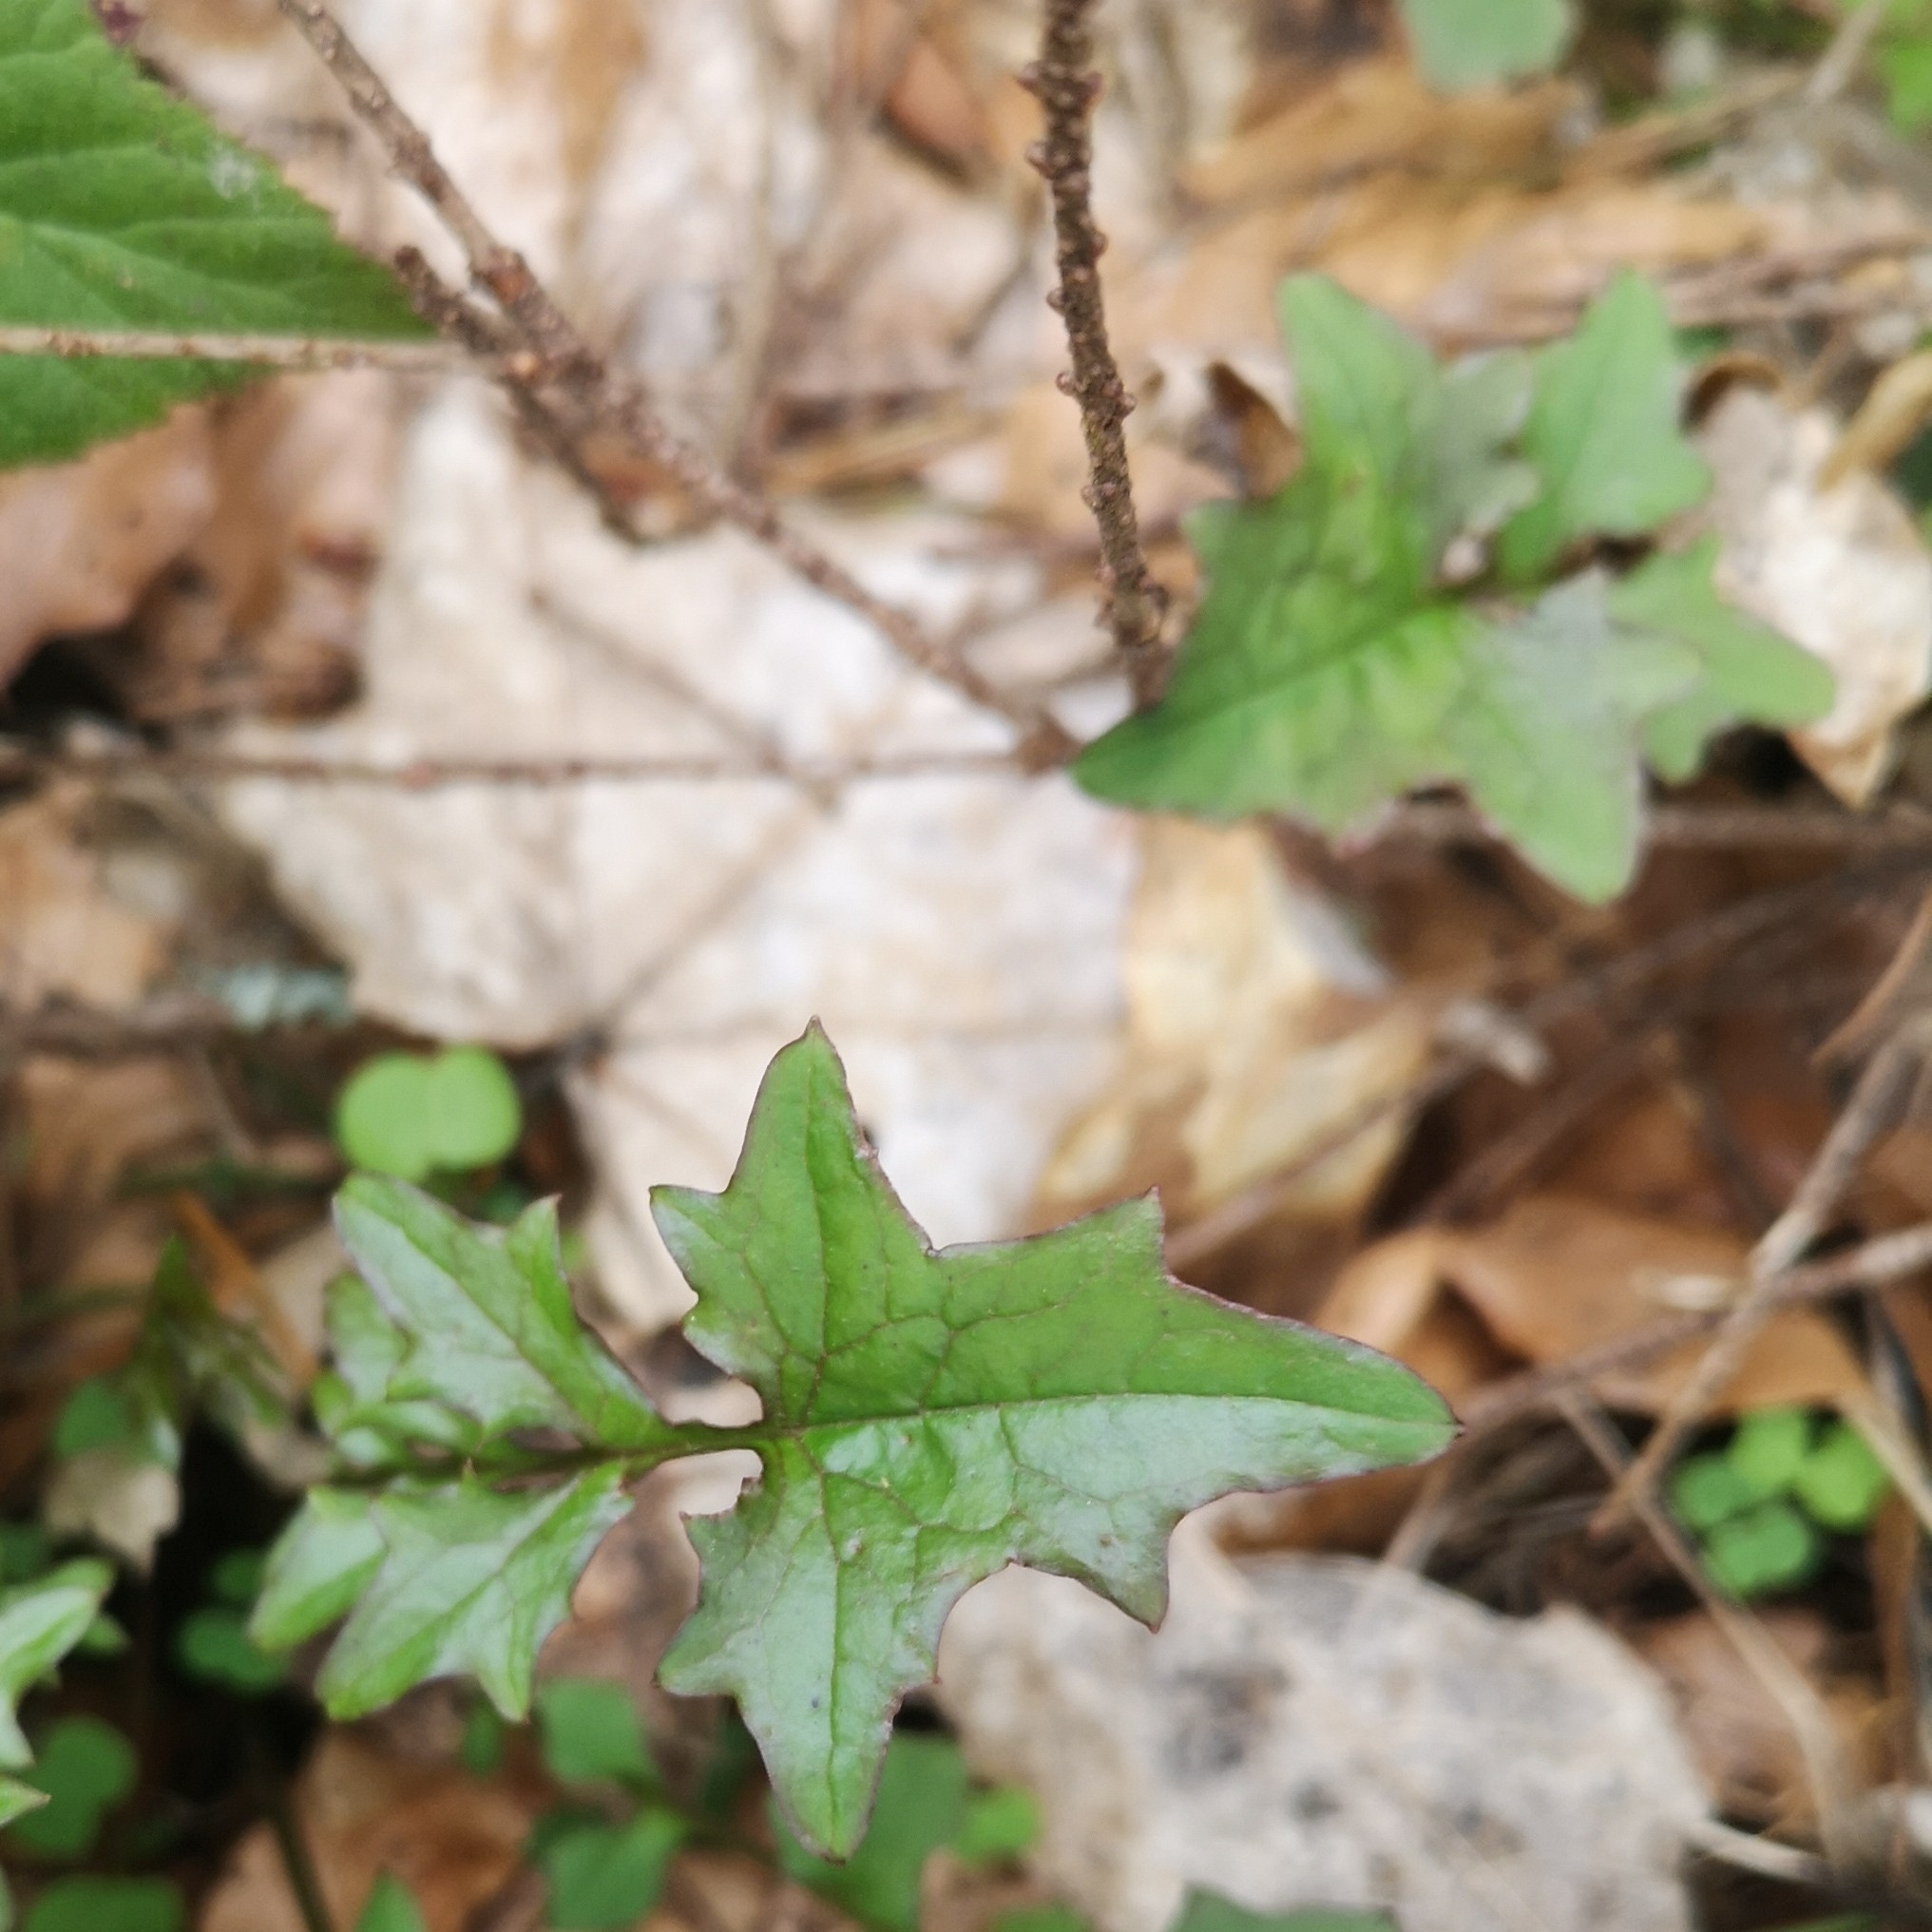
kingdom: Plantae
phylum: Tracheophyta
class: Magnoliopsida
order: Asterales
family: Asteraceae
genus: Mycelis
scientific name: Mycelis muralis
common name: Wall lettuce
